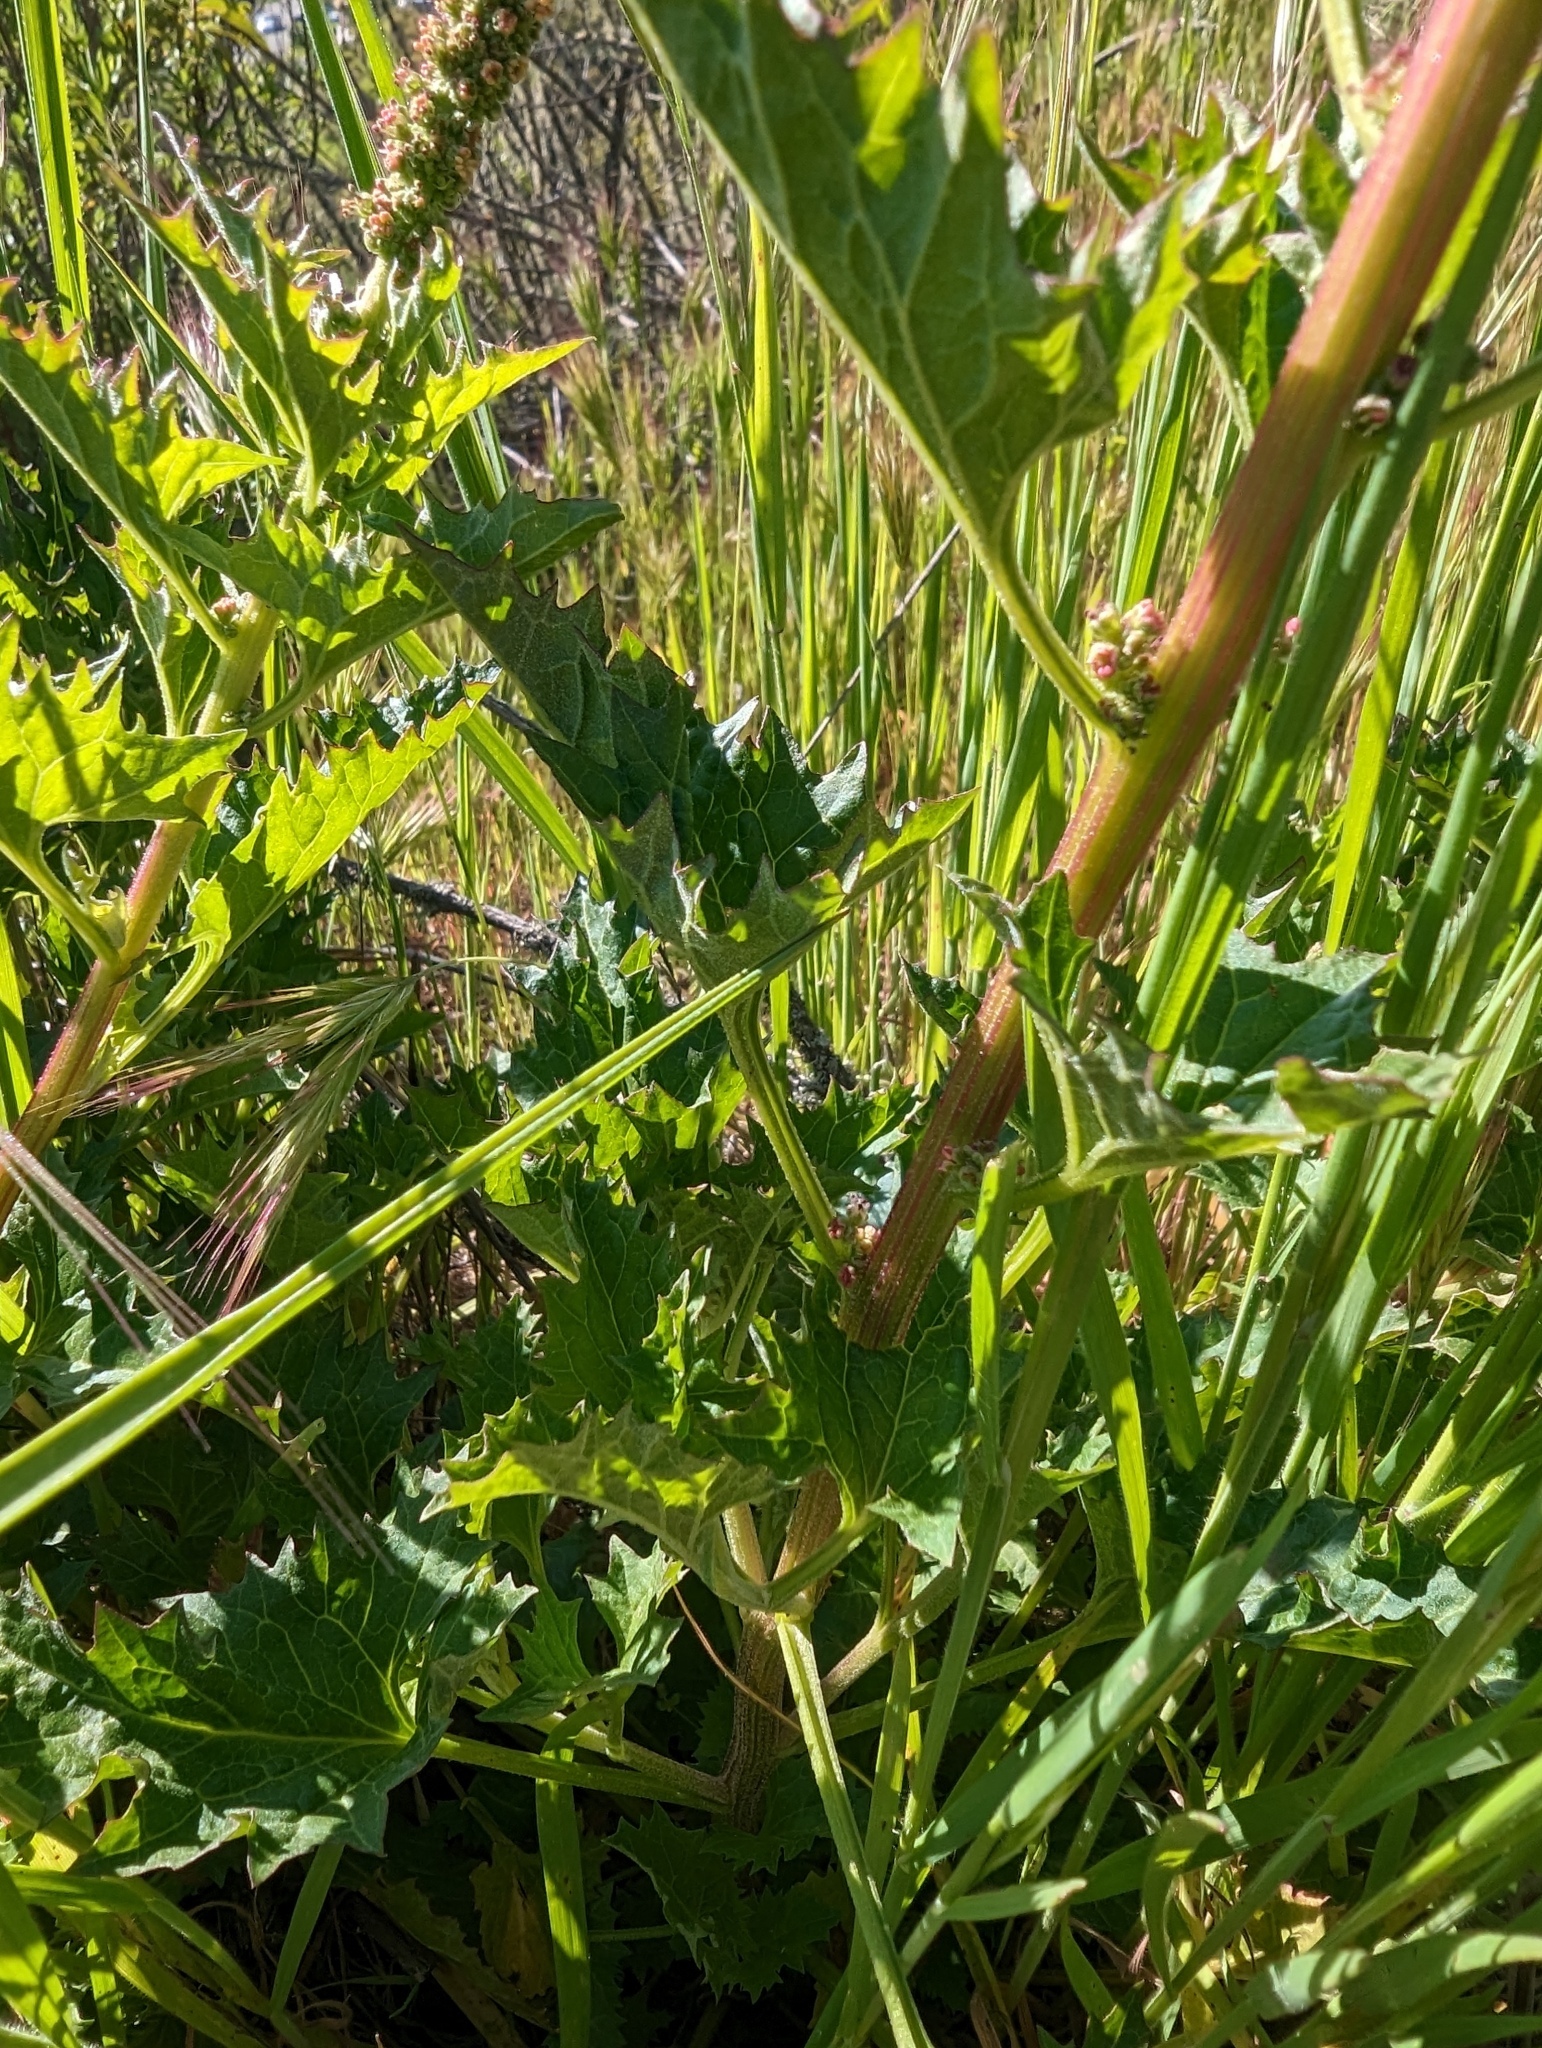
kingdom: Plantae
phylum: Tracheophyta
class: Magnoliopsida
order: Caryophyllales
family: Amaranthaceae
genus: Blitum
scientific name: Blitum californicum
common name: California goosefoot
